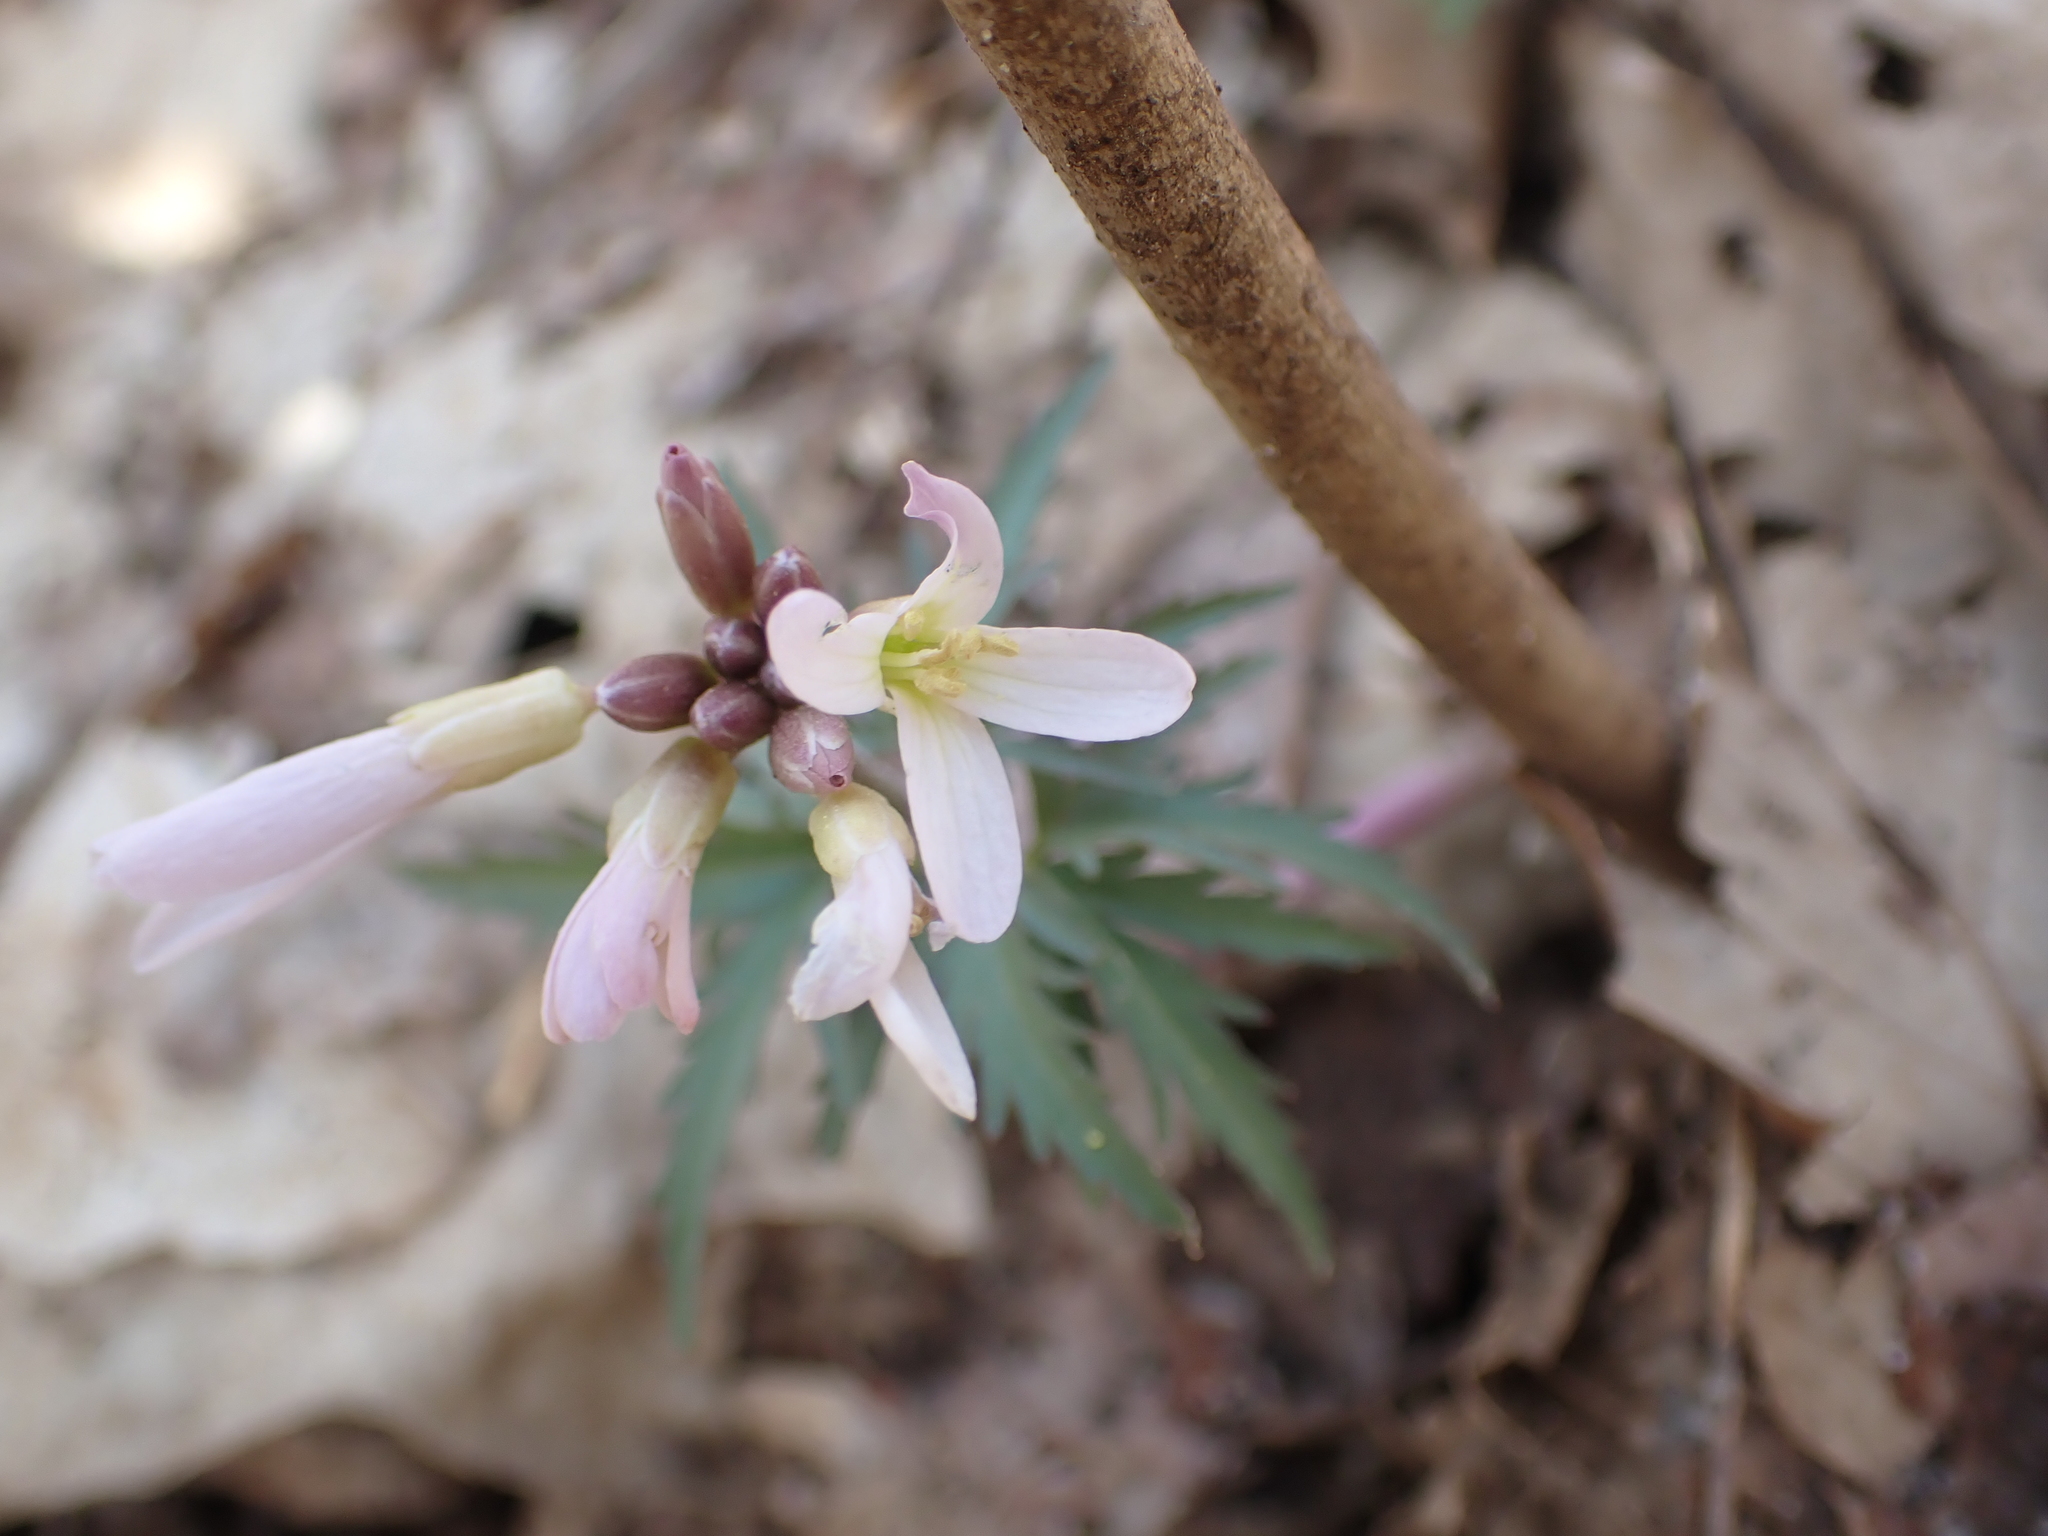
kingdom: Plantae
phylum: Tracheophyta
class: Magnoliopsida
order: Brassicales
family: Brassicaceae
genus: Cardamine
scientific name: Cardamine concatenata
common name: Cut-leaf toothcup
